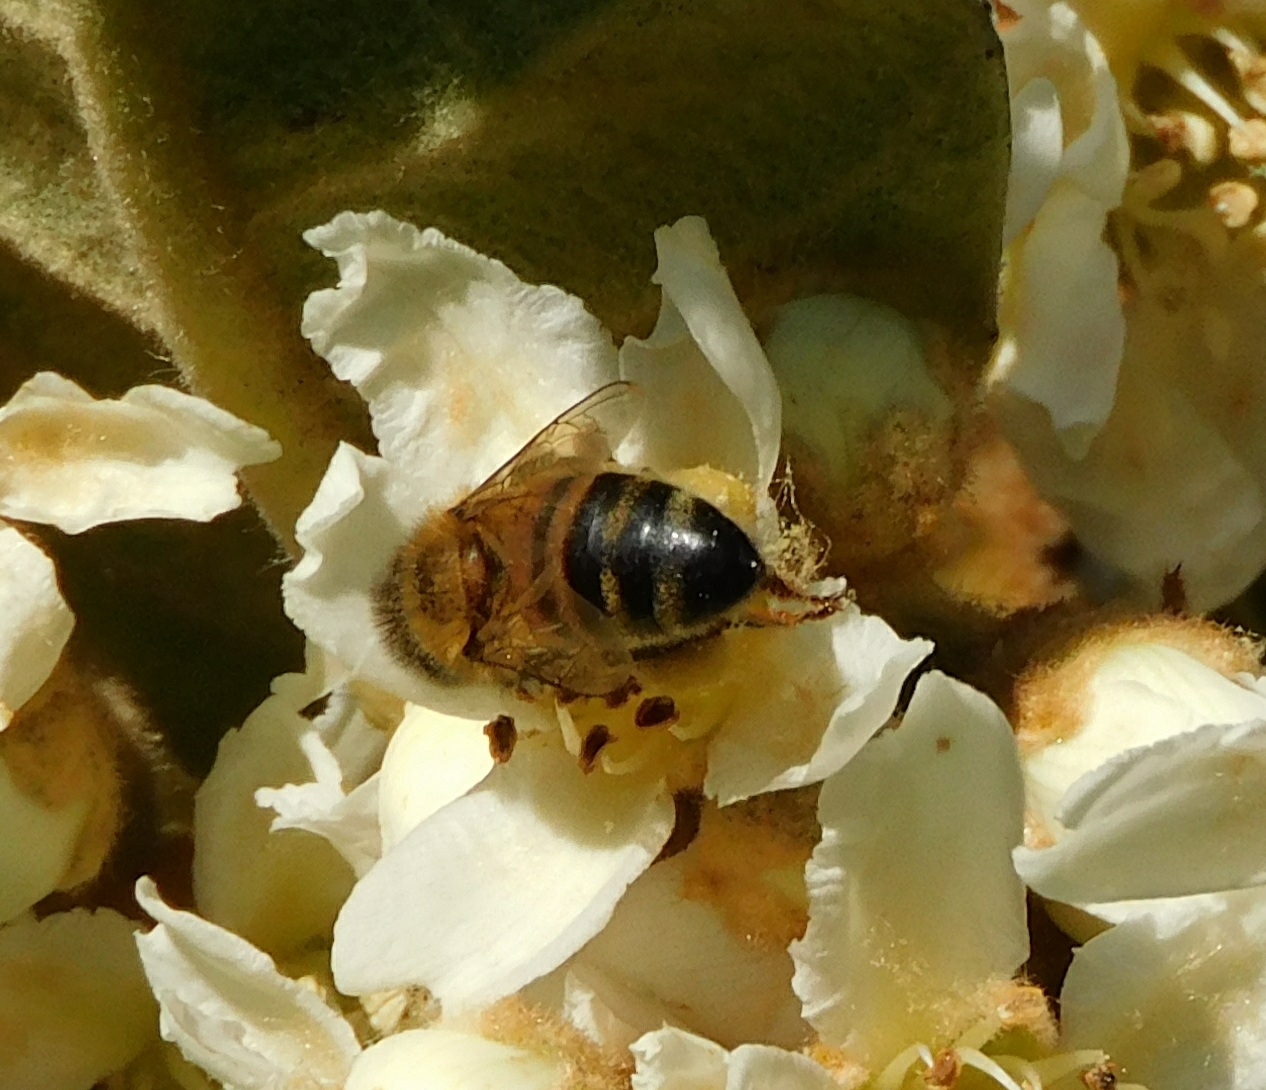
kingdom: Animalia
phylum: Arthropoda
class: Insecta
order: Hymenoptera
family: Apidae
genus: Apis
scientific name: Apis mellifera
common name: Honey bee
